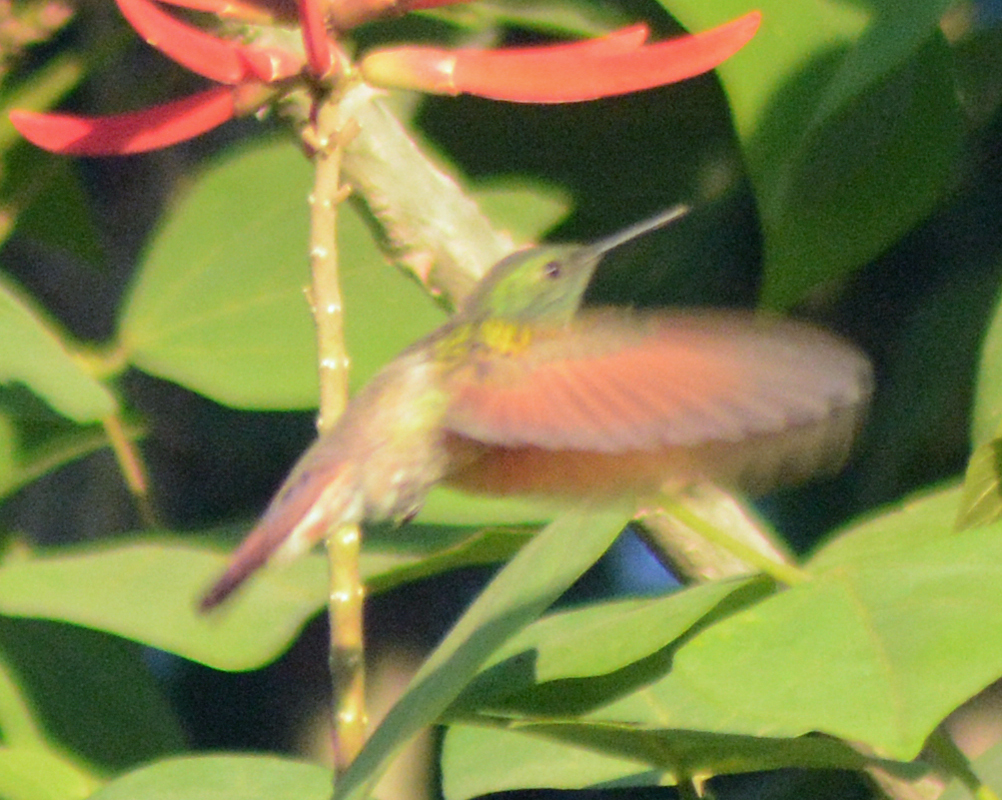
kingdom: Animalia
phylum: Chordata
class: Aves
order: Apodiformes
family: Trochilidae
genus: Saucerottia
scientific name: Saucerottia beryllina
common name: Berylline hummingbird
